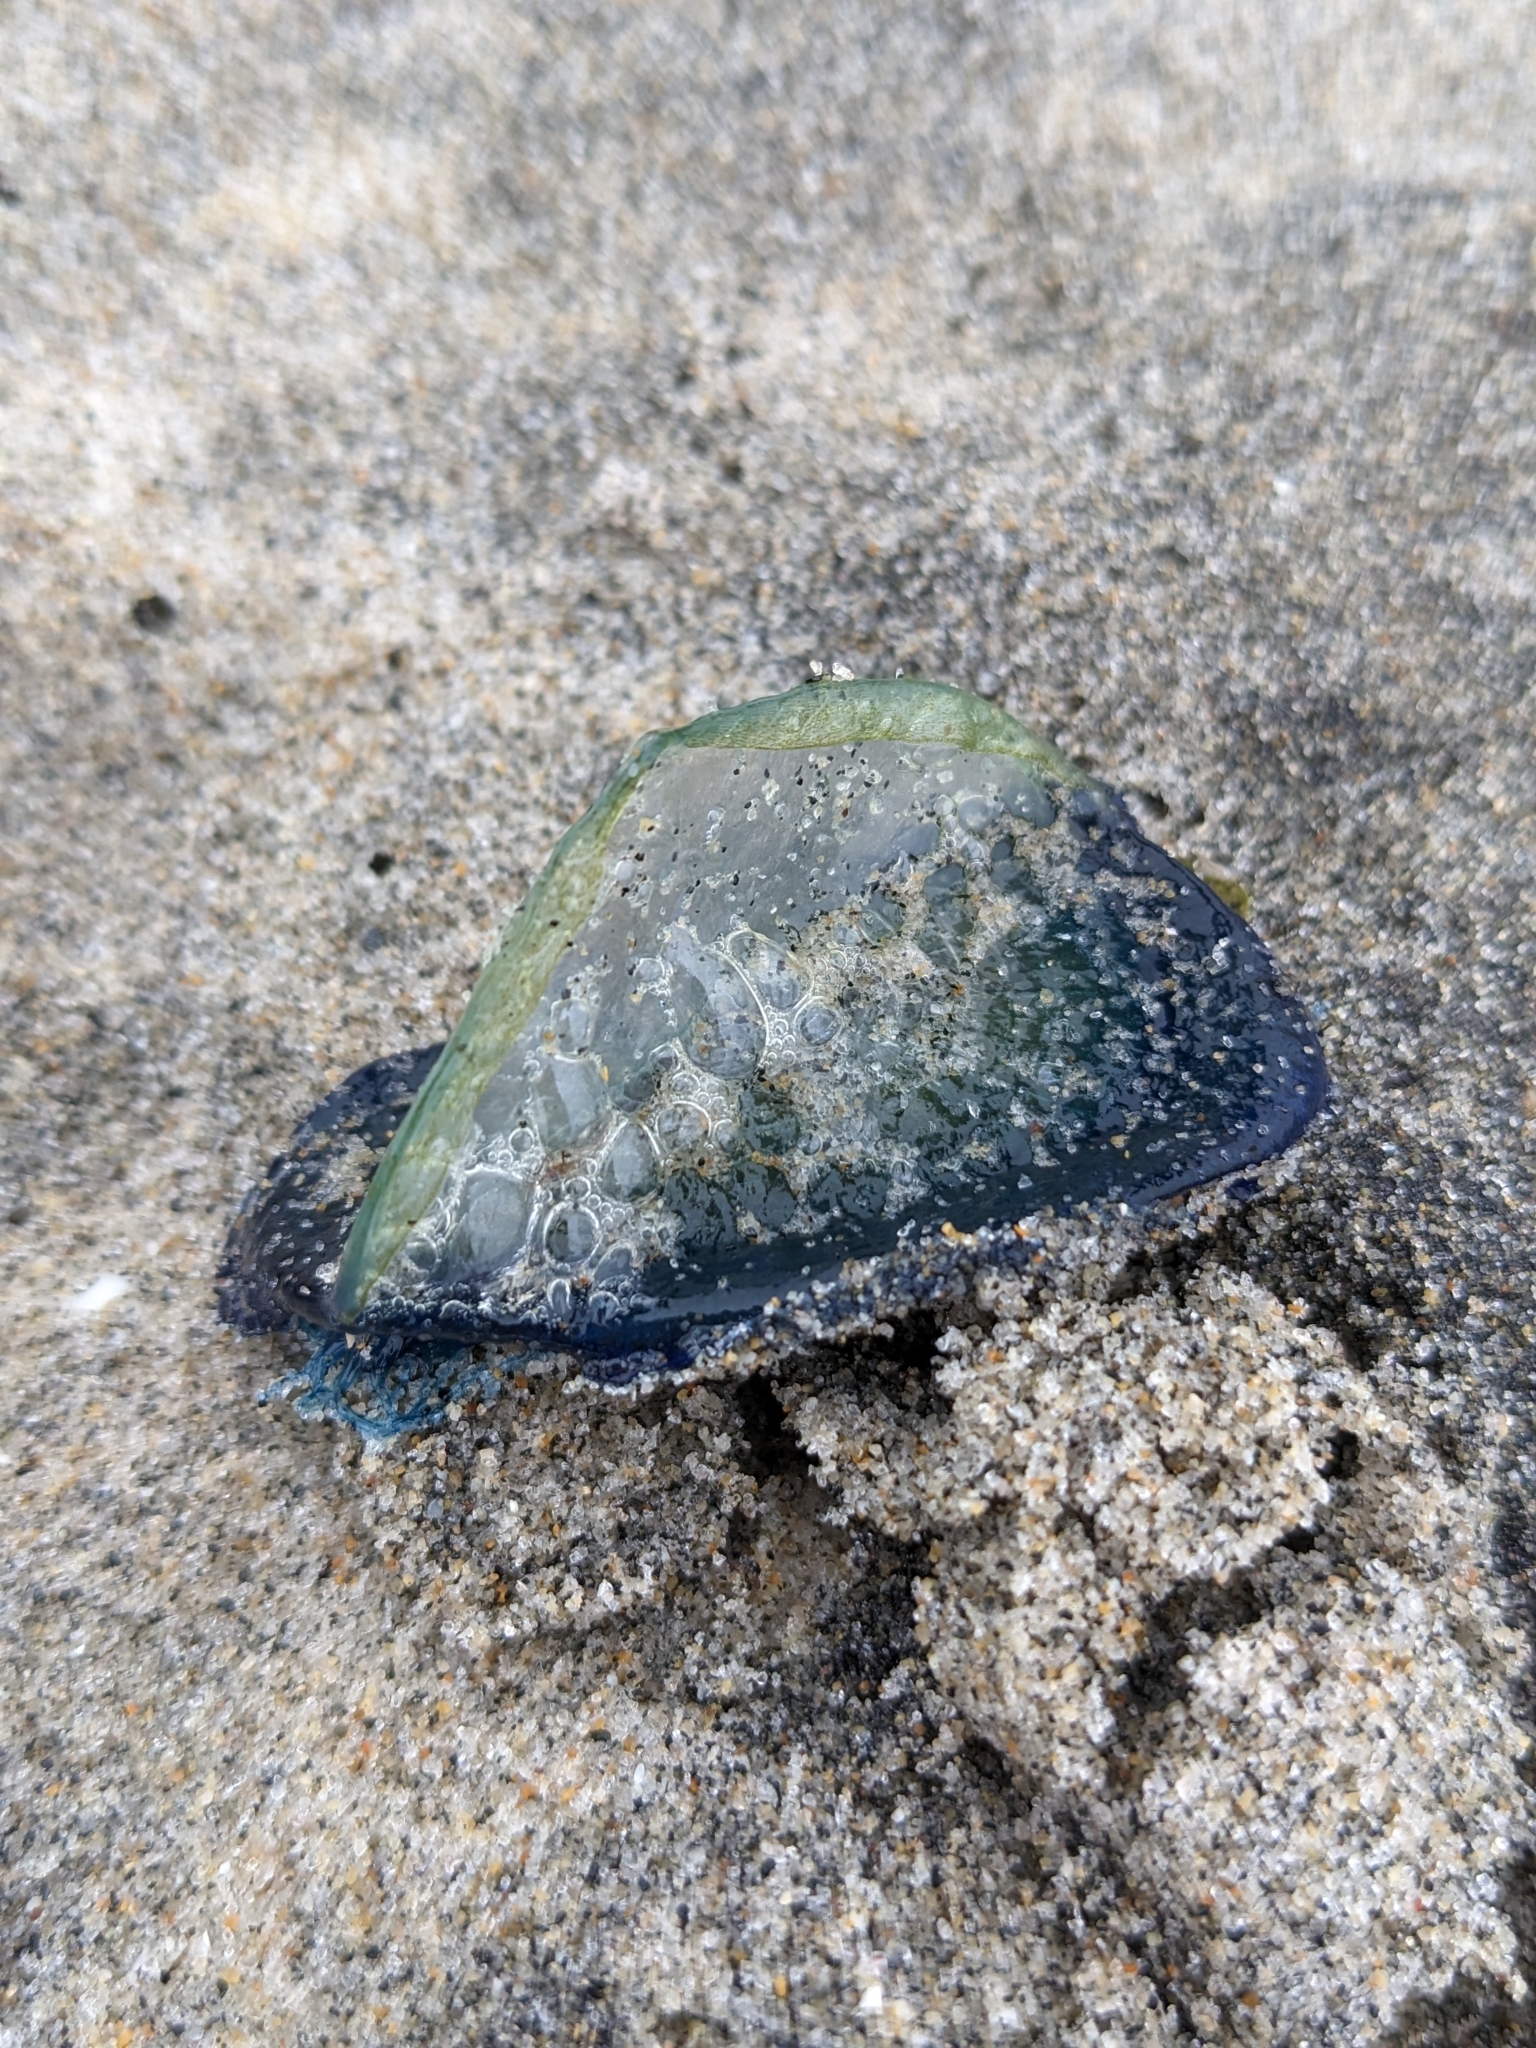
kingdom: Animalia
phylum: Cnidaria
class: Hydrozoa
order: Anthoathecata
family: Porpitidae
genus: Velella
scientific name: Velella velella
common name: By-the-wind-sailor
